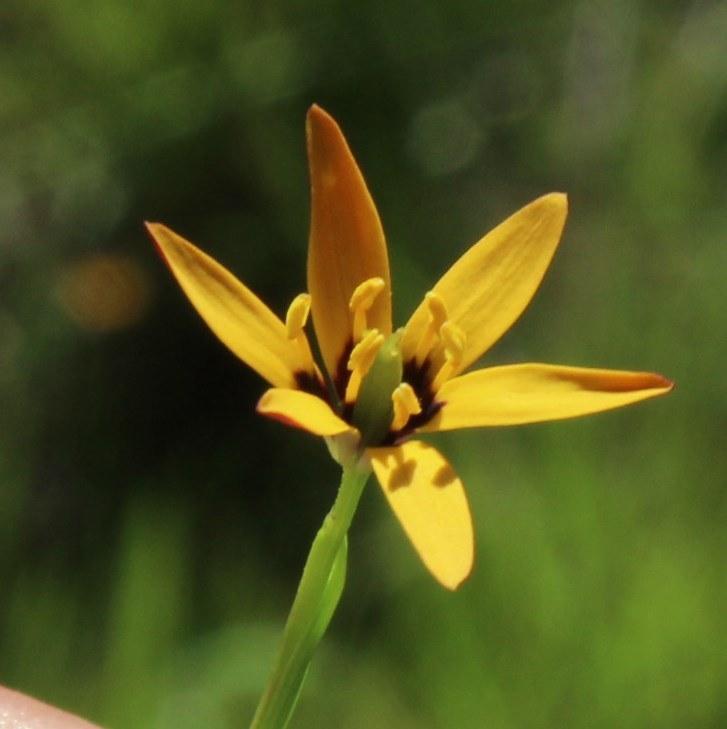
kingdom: Plantae
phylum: Tracheophyta
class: Liliopsida
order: Liliales
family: Colchicaceae
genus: Baeometra
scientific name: Baeometra uniflora
